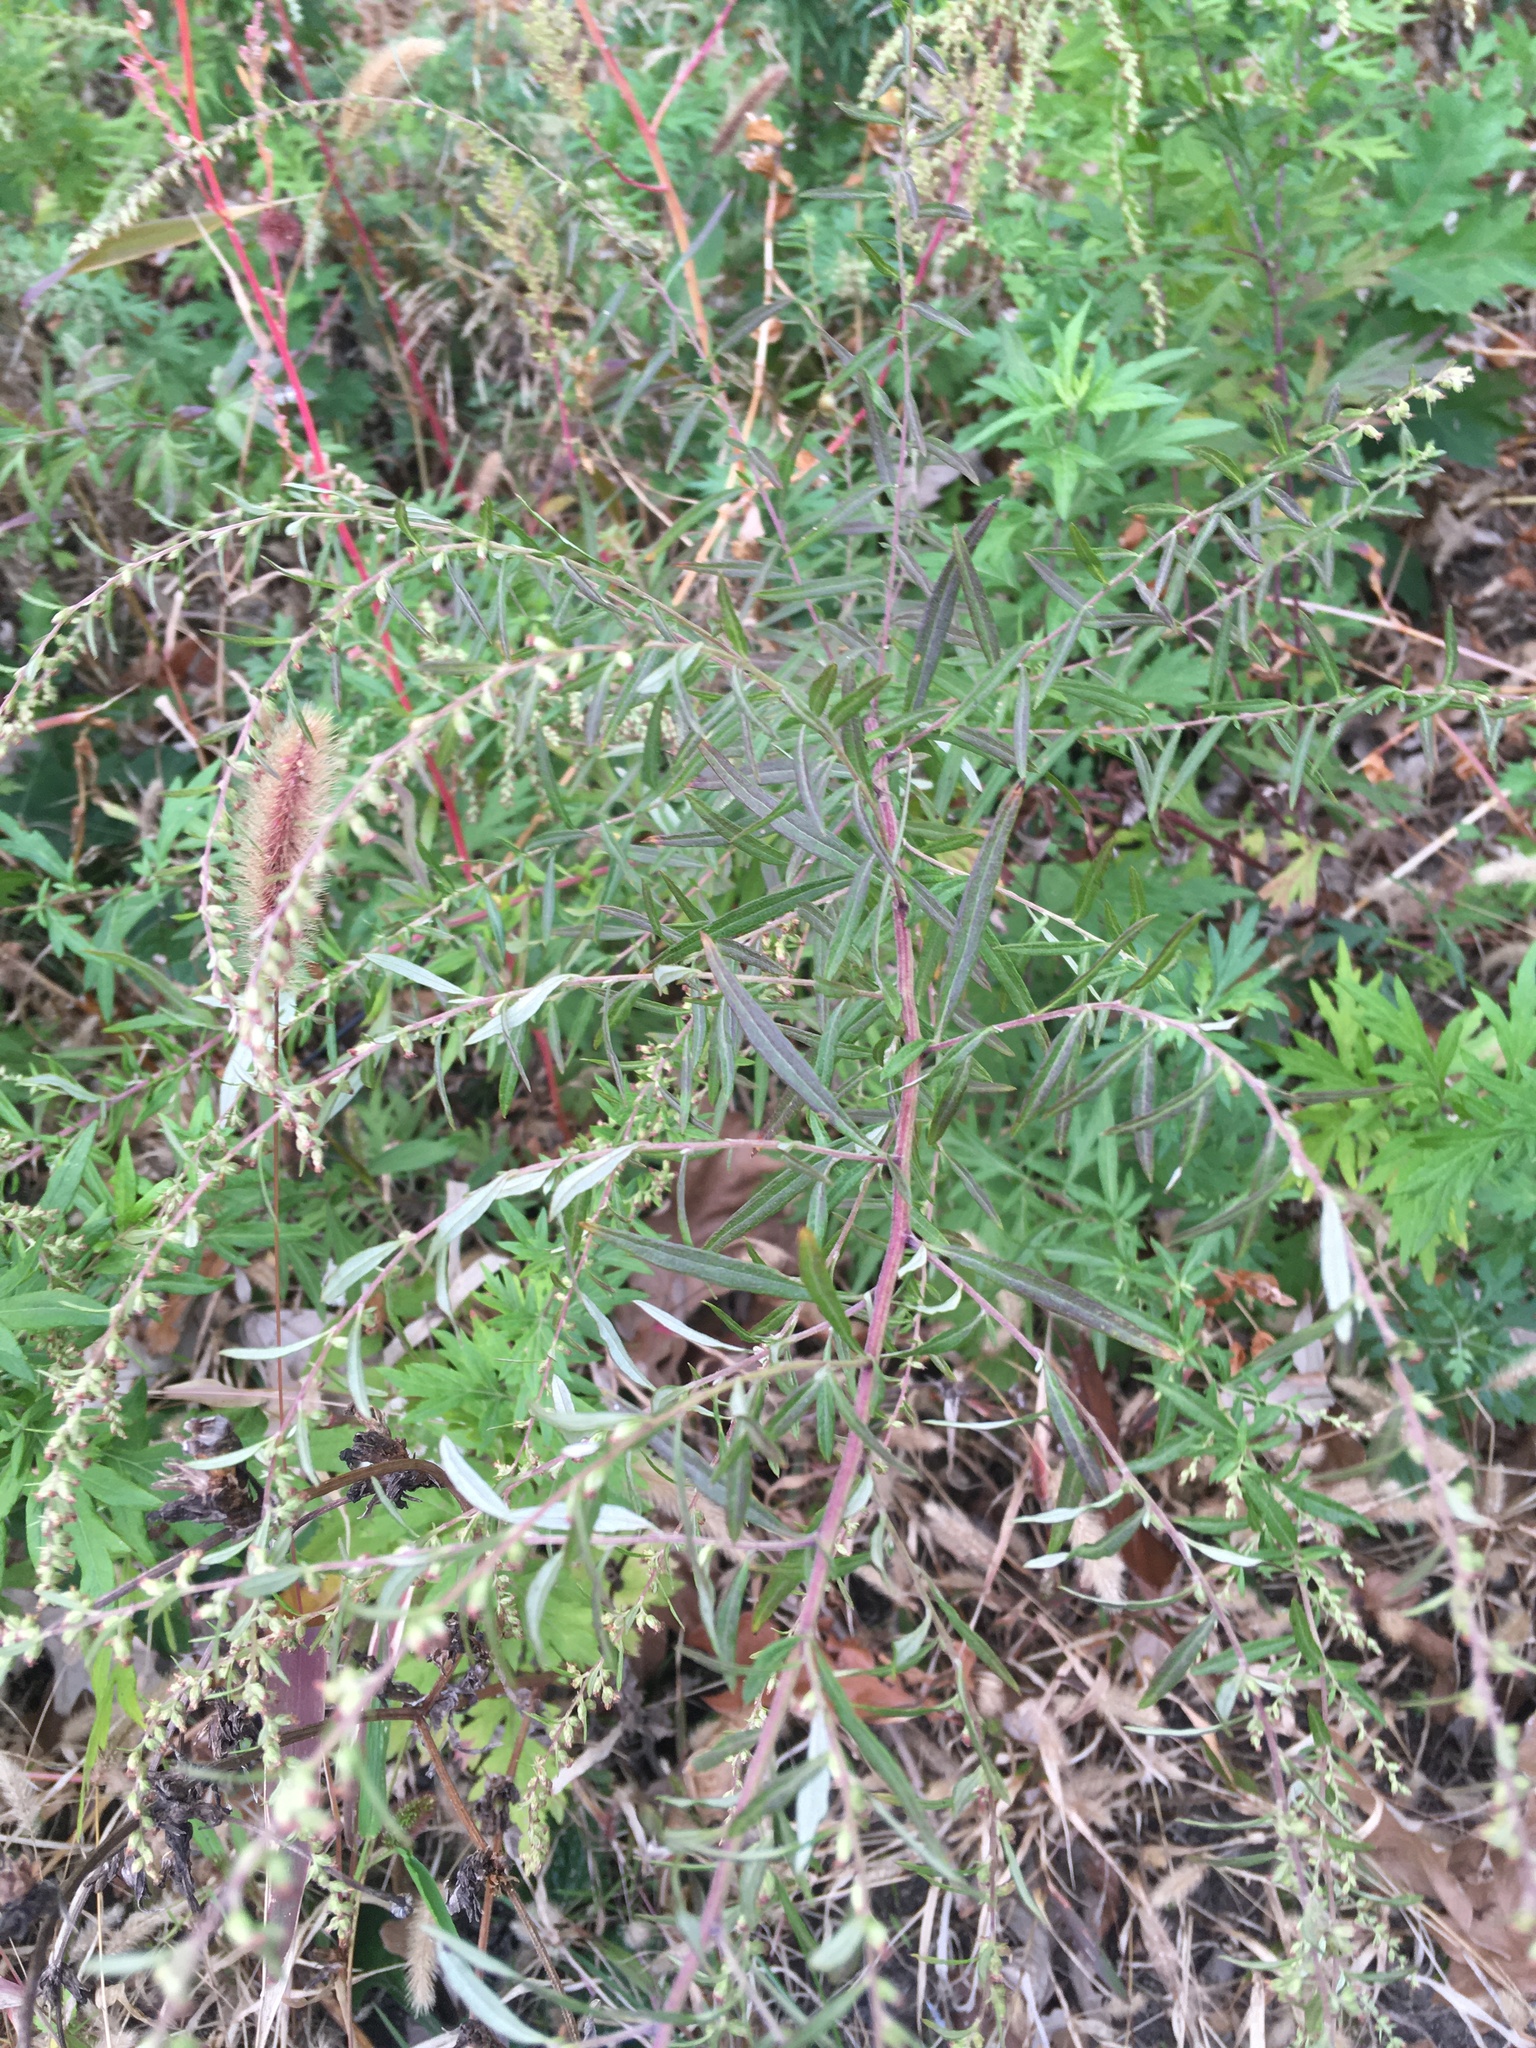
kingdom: Plantae
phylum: Tracheophyta
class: Magnoliopsida
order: Asterales
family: Asteraceae
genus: Artemisia
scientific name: Artemisia vulgaris
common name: Mugwort
